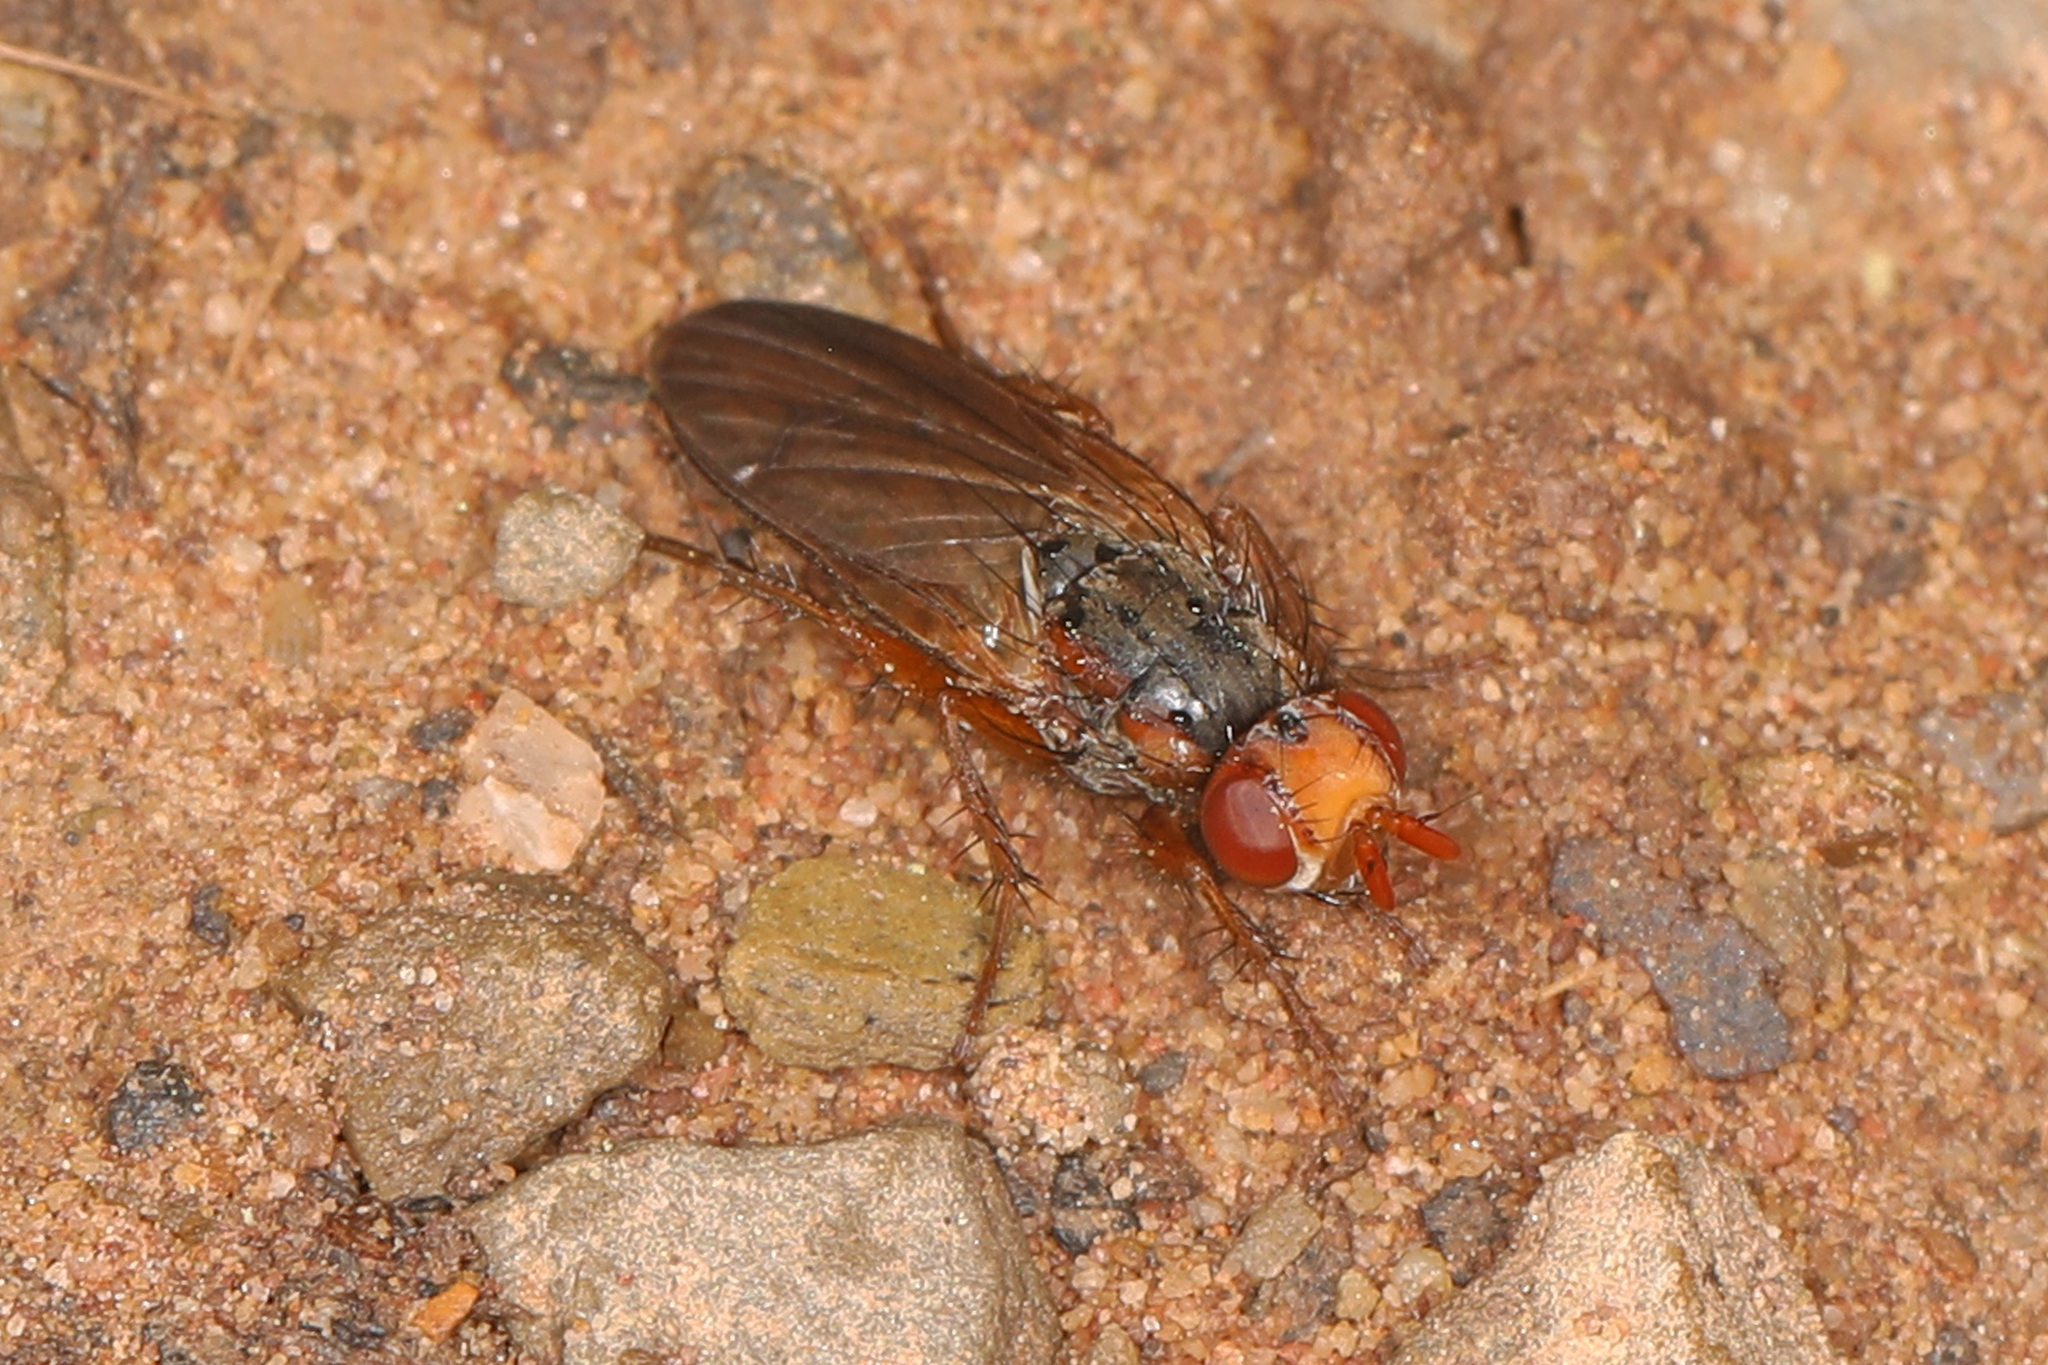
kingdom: Animalia
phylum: Arthropoda
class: Insecta
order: Diptera
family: Scathophagidae
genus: Bucephalina
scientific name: Bucephalina setipes
